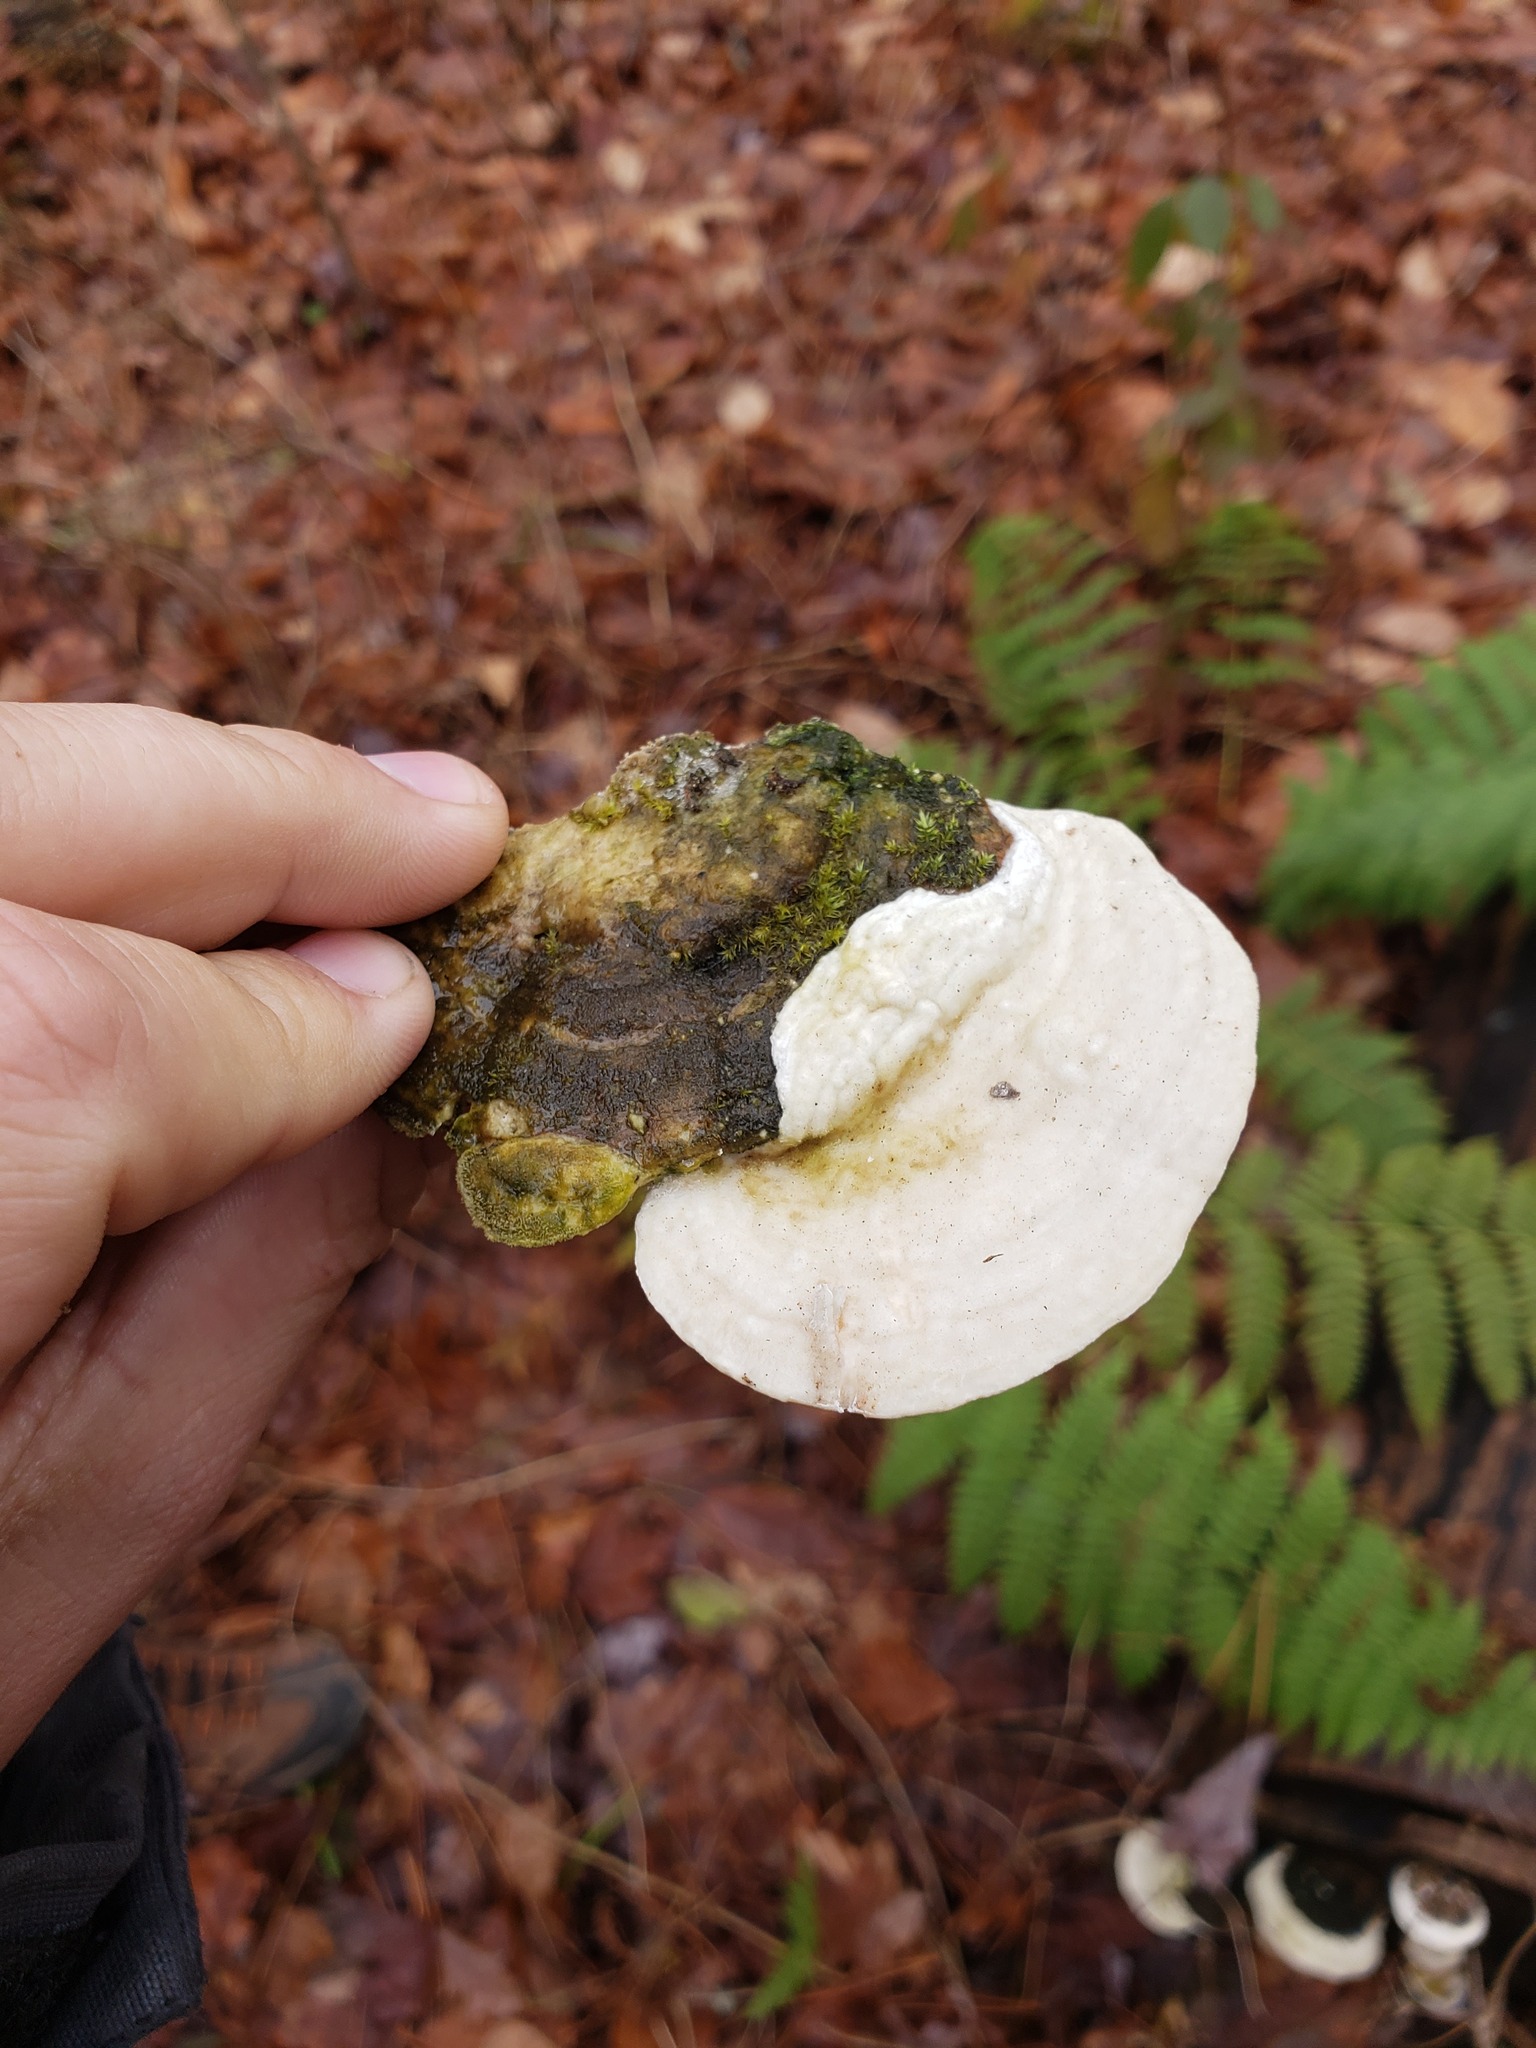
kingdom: Fungi
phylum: Basidiomycota
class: Agaricomycetes
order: Polyporales
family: Polyporaceae
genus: Trametes
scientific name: Trametes gibbosa
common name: Lumpy bracket
